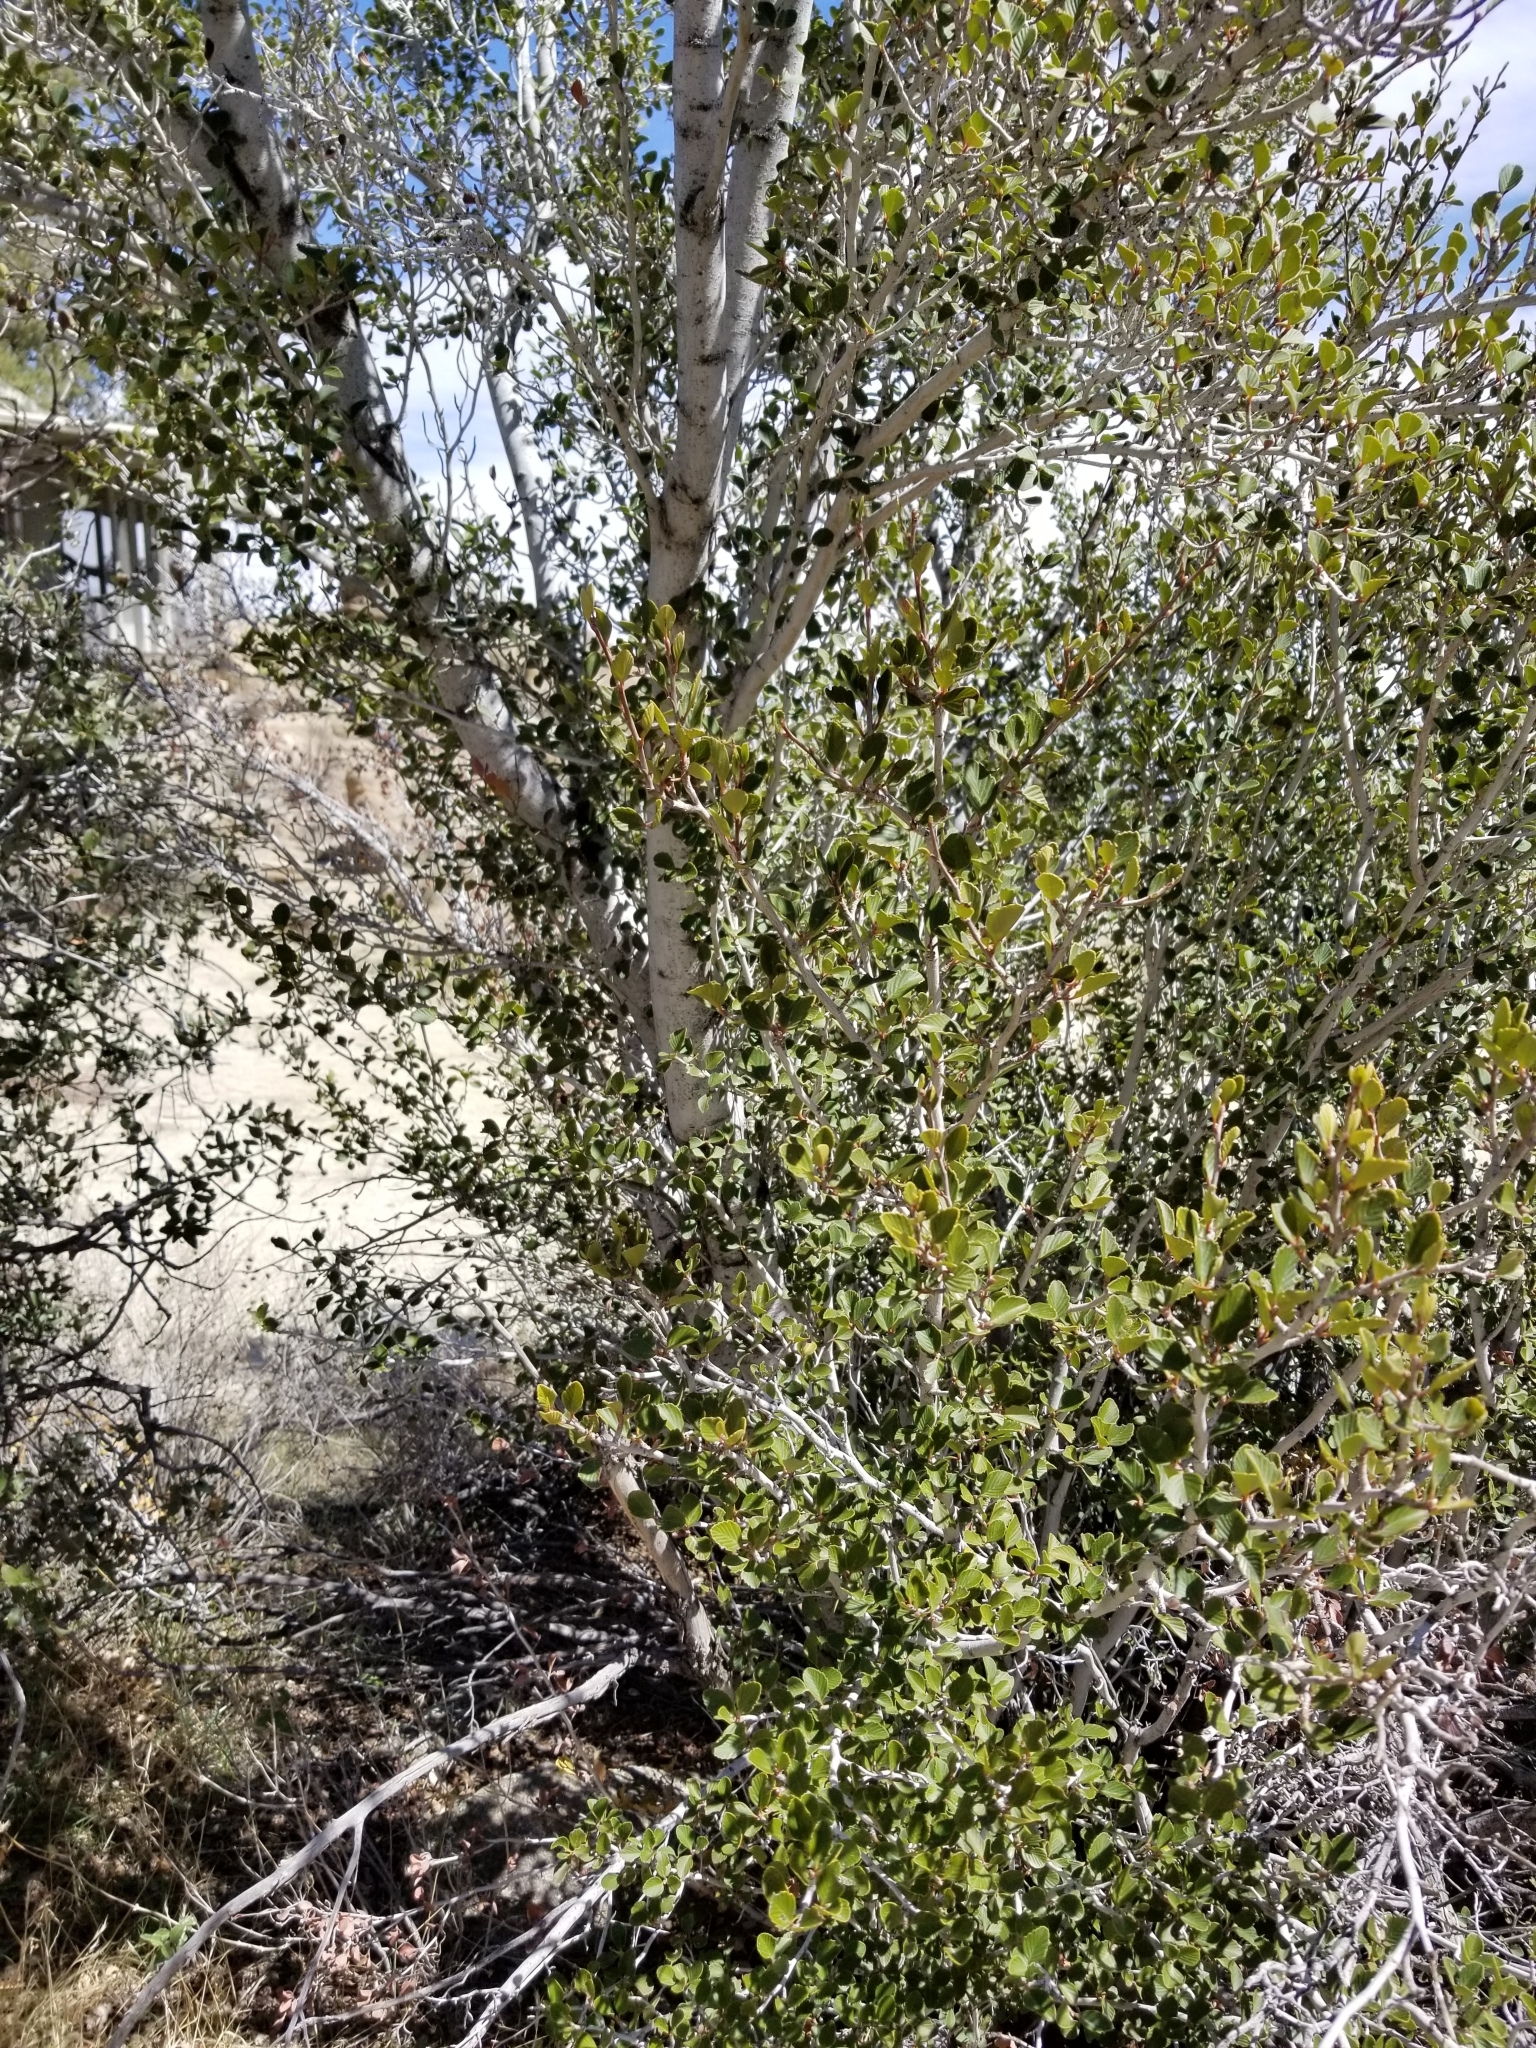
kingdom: Plantae
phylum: Tracheophyta
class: Magnoliopsida
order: Rosales
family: Rosaceae
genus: Cercocarpus
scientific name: Cercocarpus betuloides
